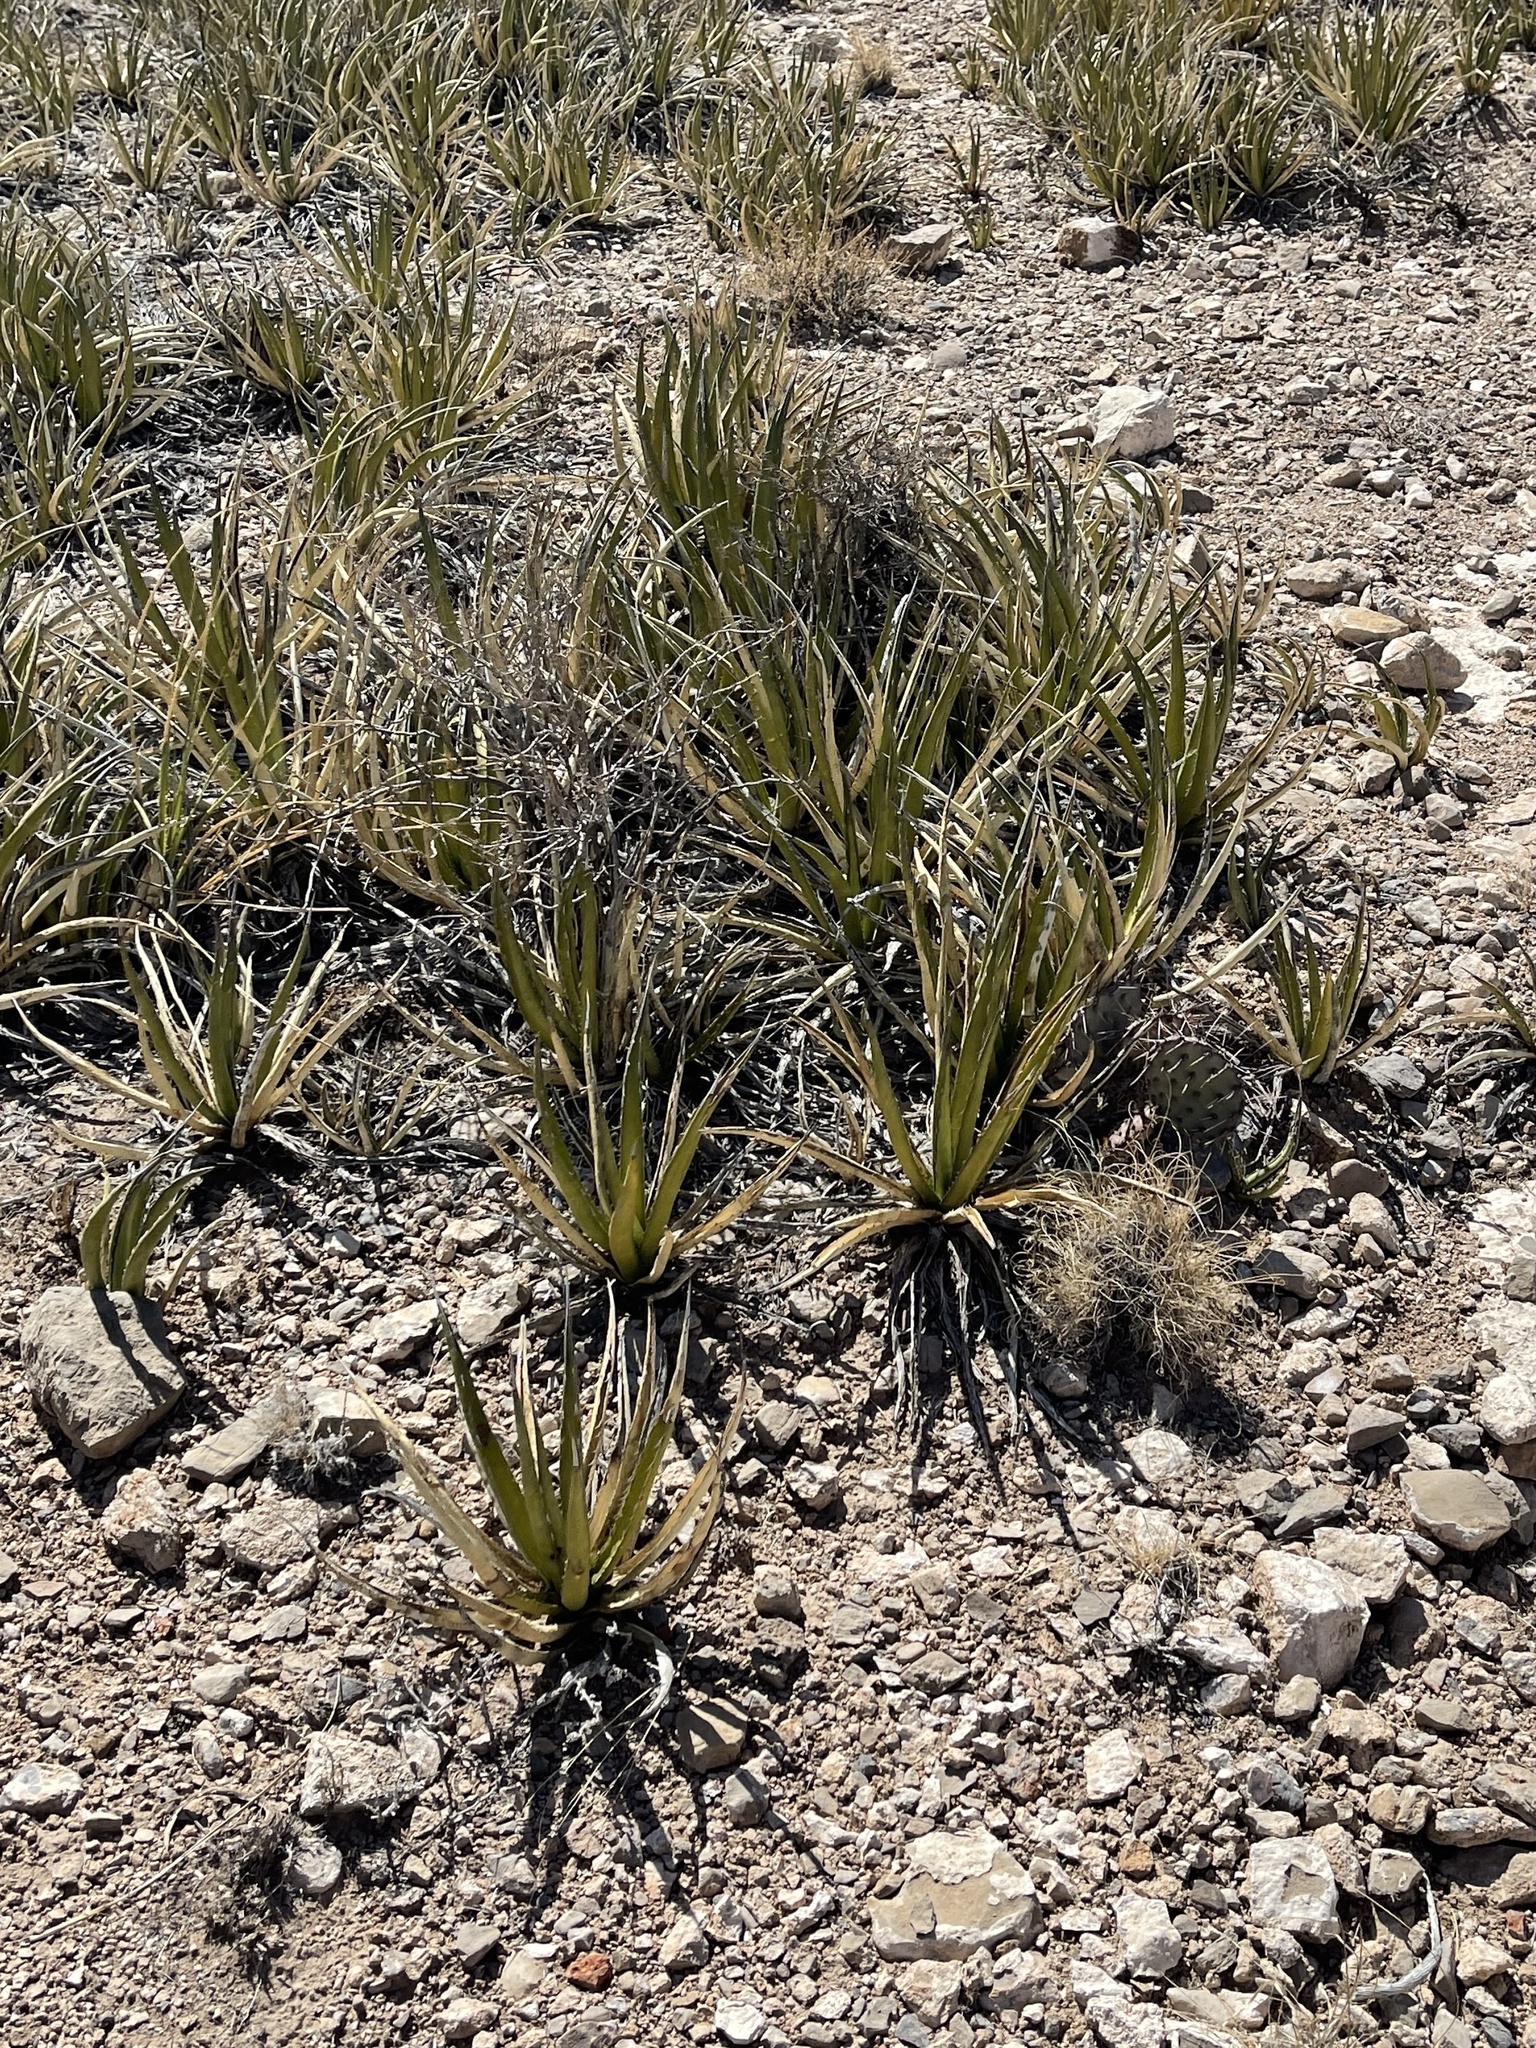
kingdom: Plantae
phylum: Tracheophyta
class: Liliopsida
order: Asparagales
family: Asparagaceae
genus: Agave
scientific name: Agave lechuguilla
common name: Lecheguilla agave
